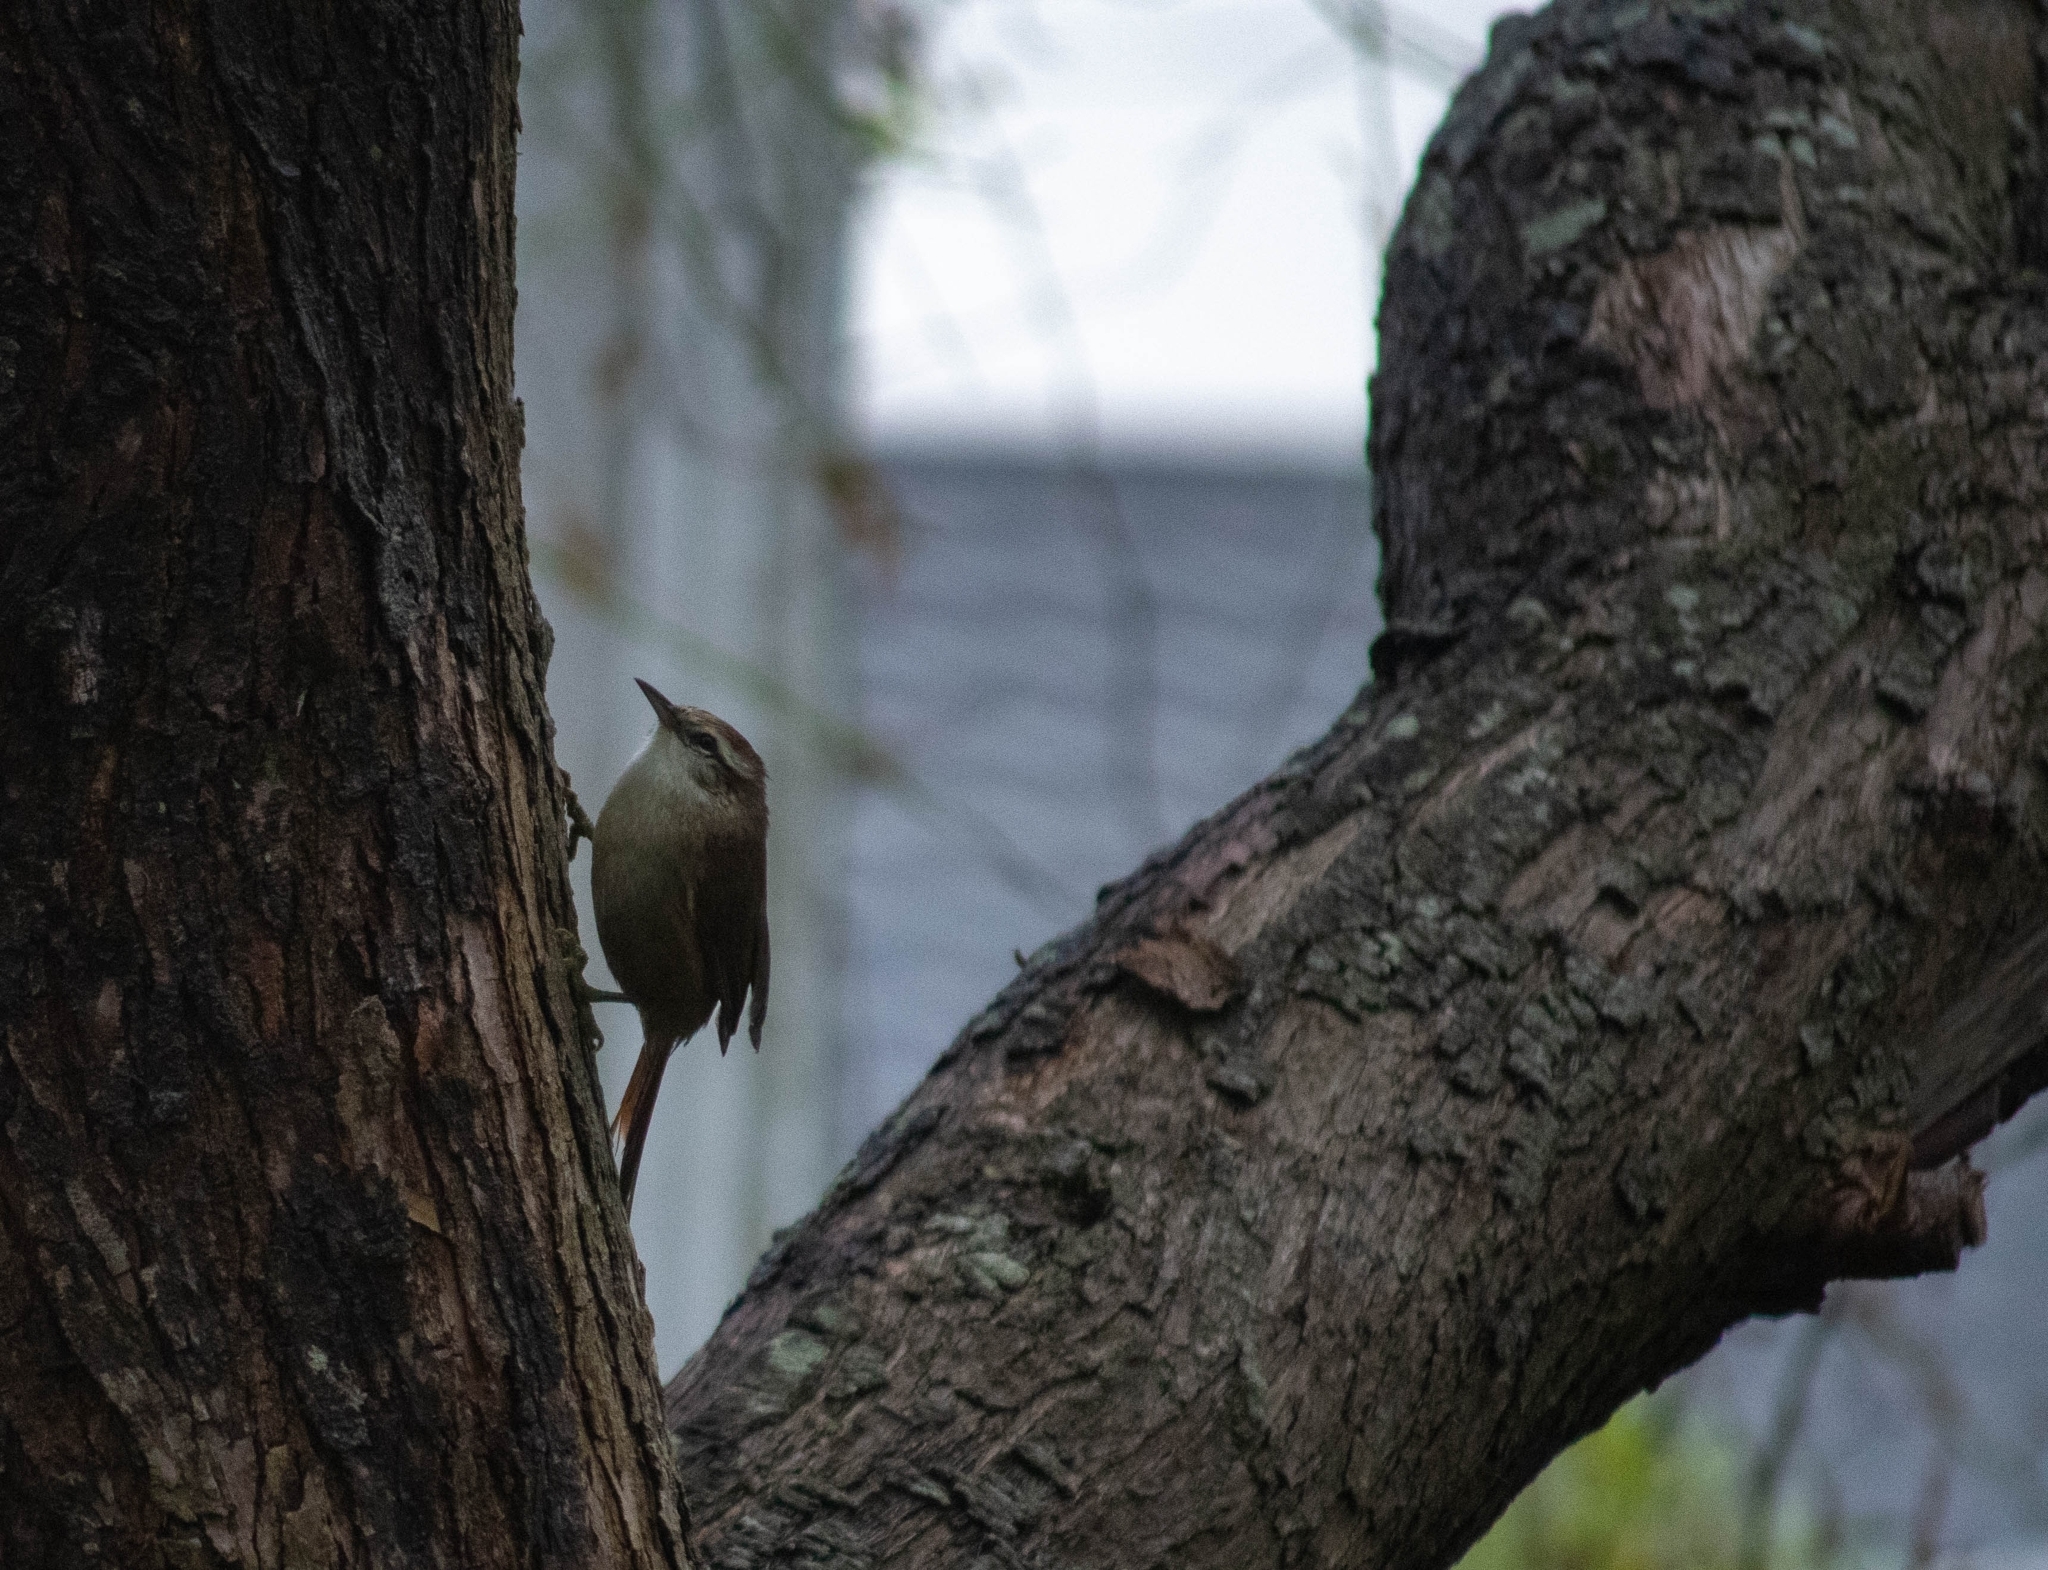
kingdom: Animalia
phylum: Chordata
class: Aves
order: Passeriformes
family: Furnariidae
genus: Cranioleuca
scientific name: Cranioleuca pyrrhophia
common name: Stripe-crowned spinetail
